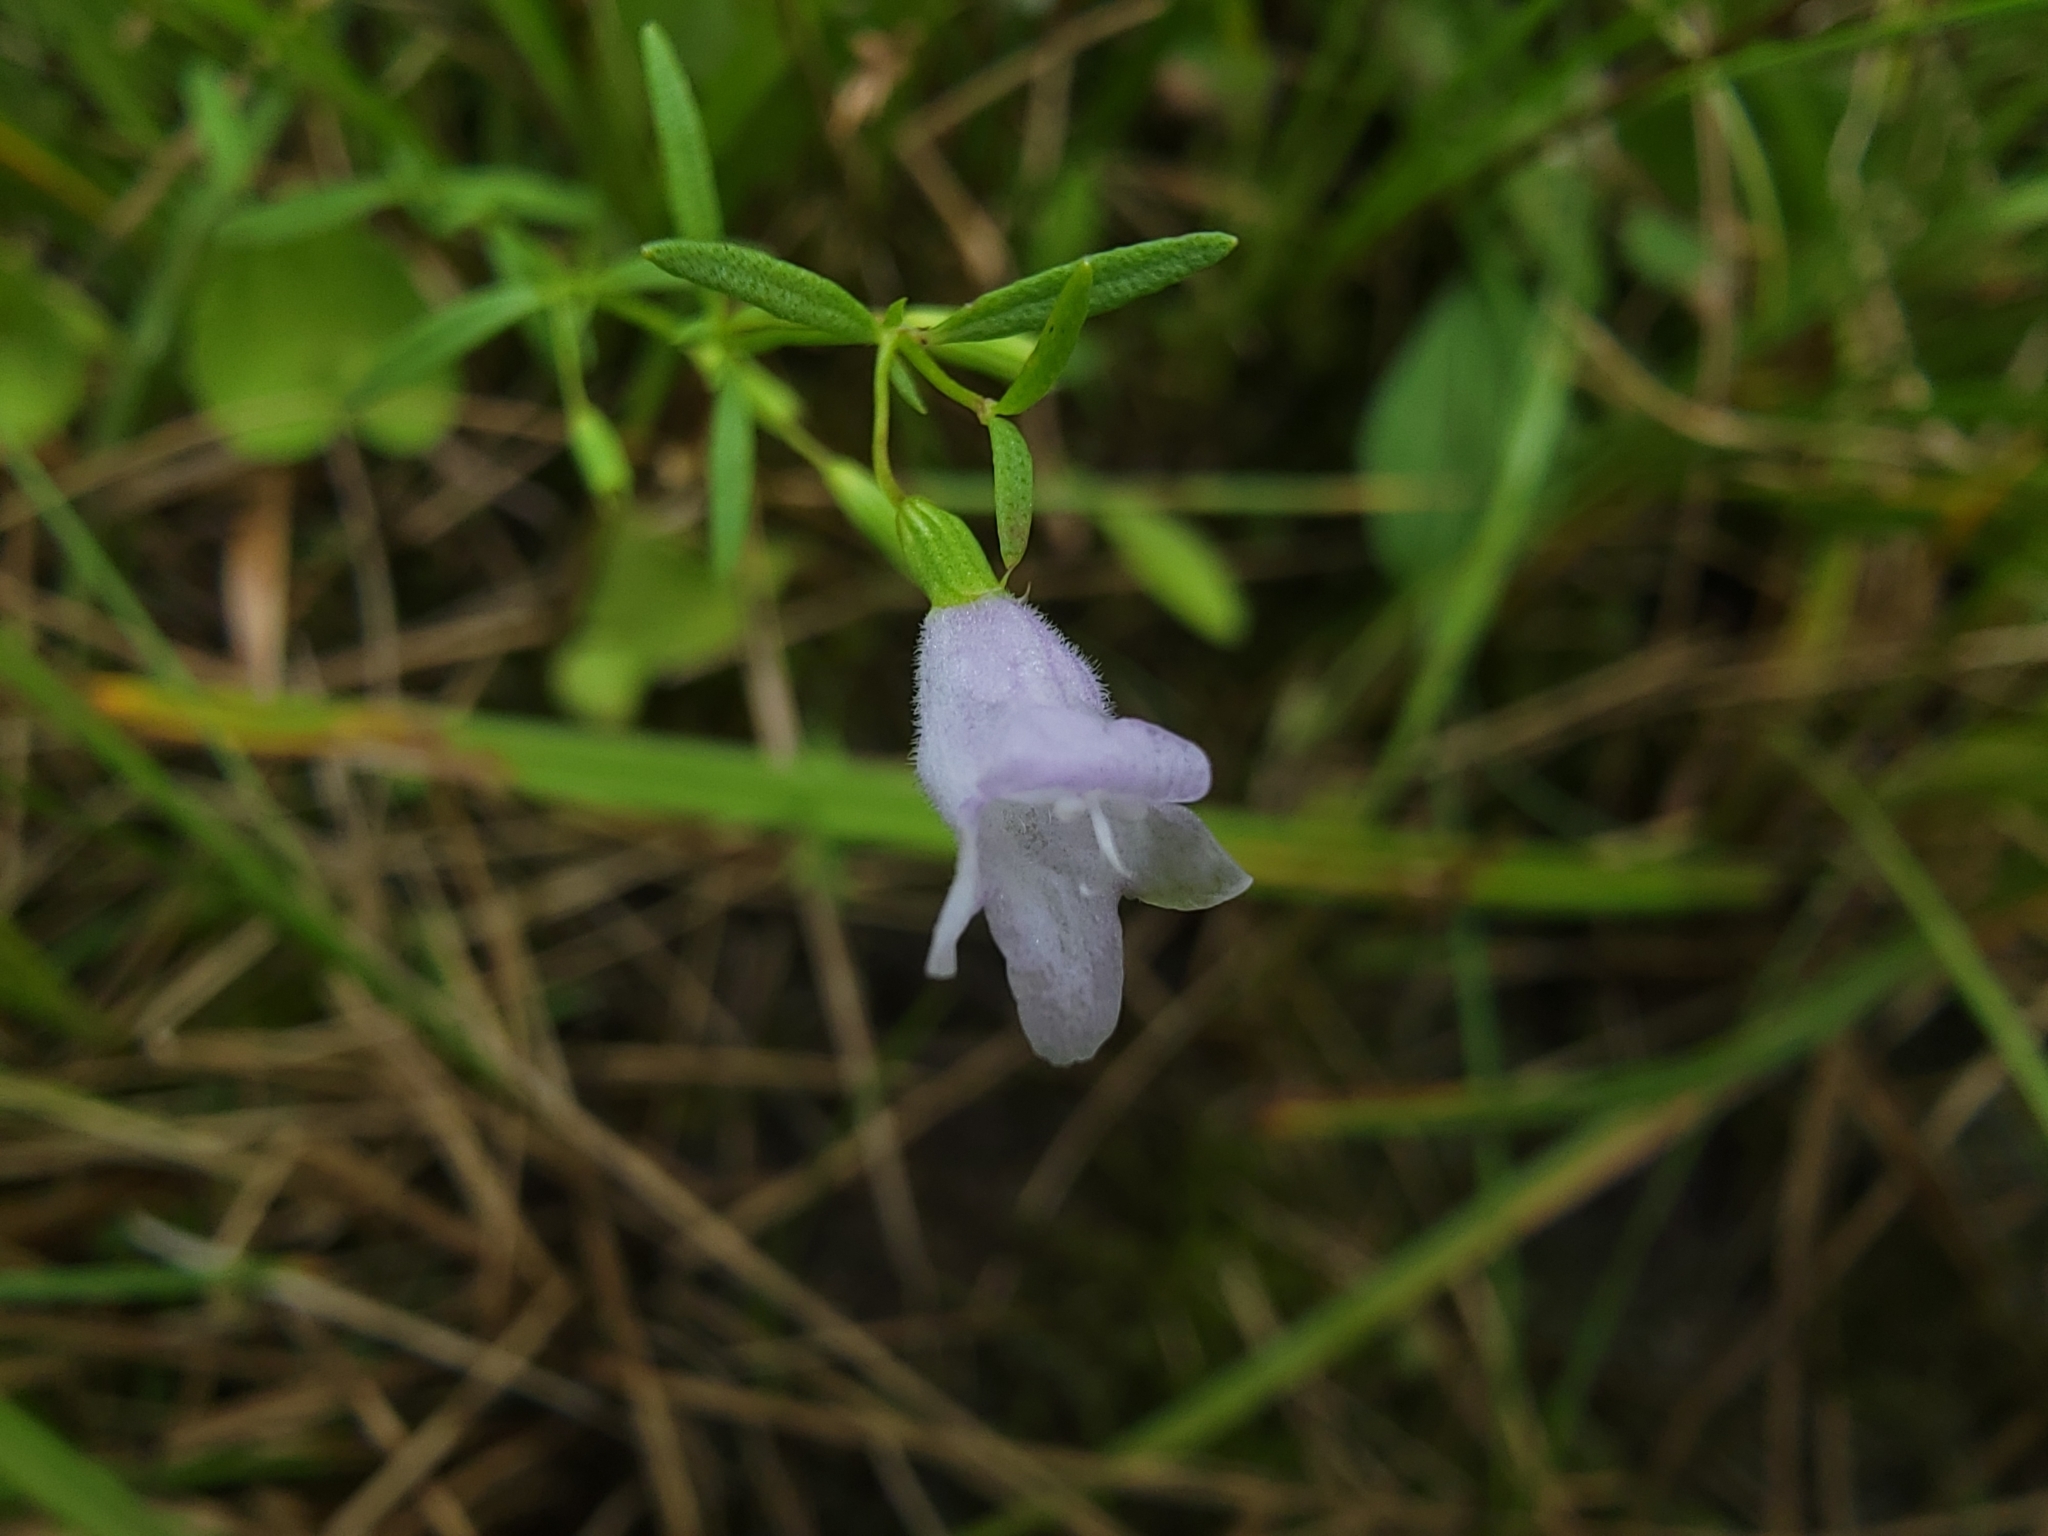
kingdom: Plantae
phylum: Tracheophyta
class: Magnoliopsida
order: Lamiales
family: Lamiaceae
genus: Clinopodium
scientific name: Clinopodium arkansanum
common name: Limestone calamint
